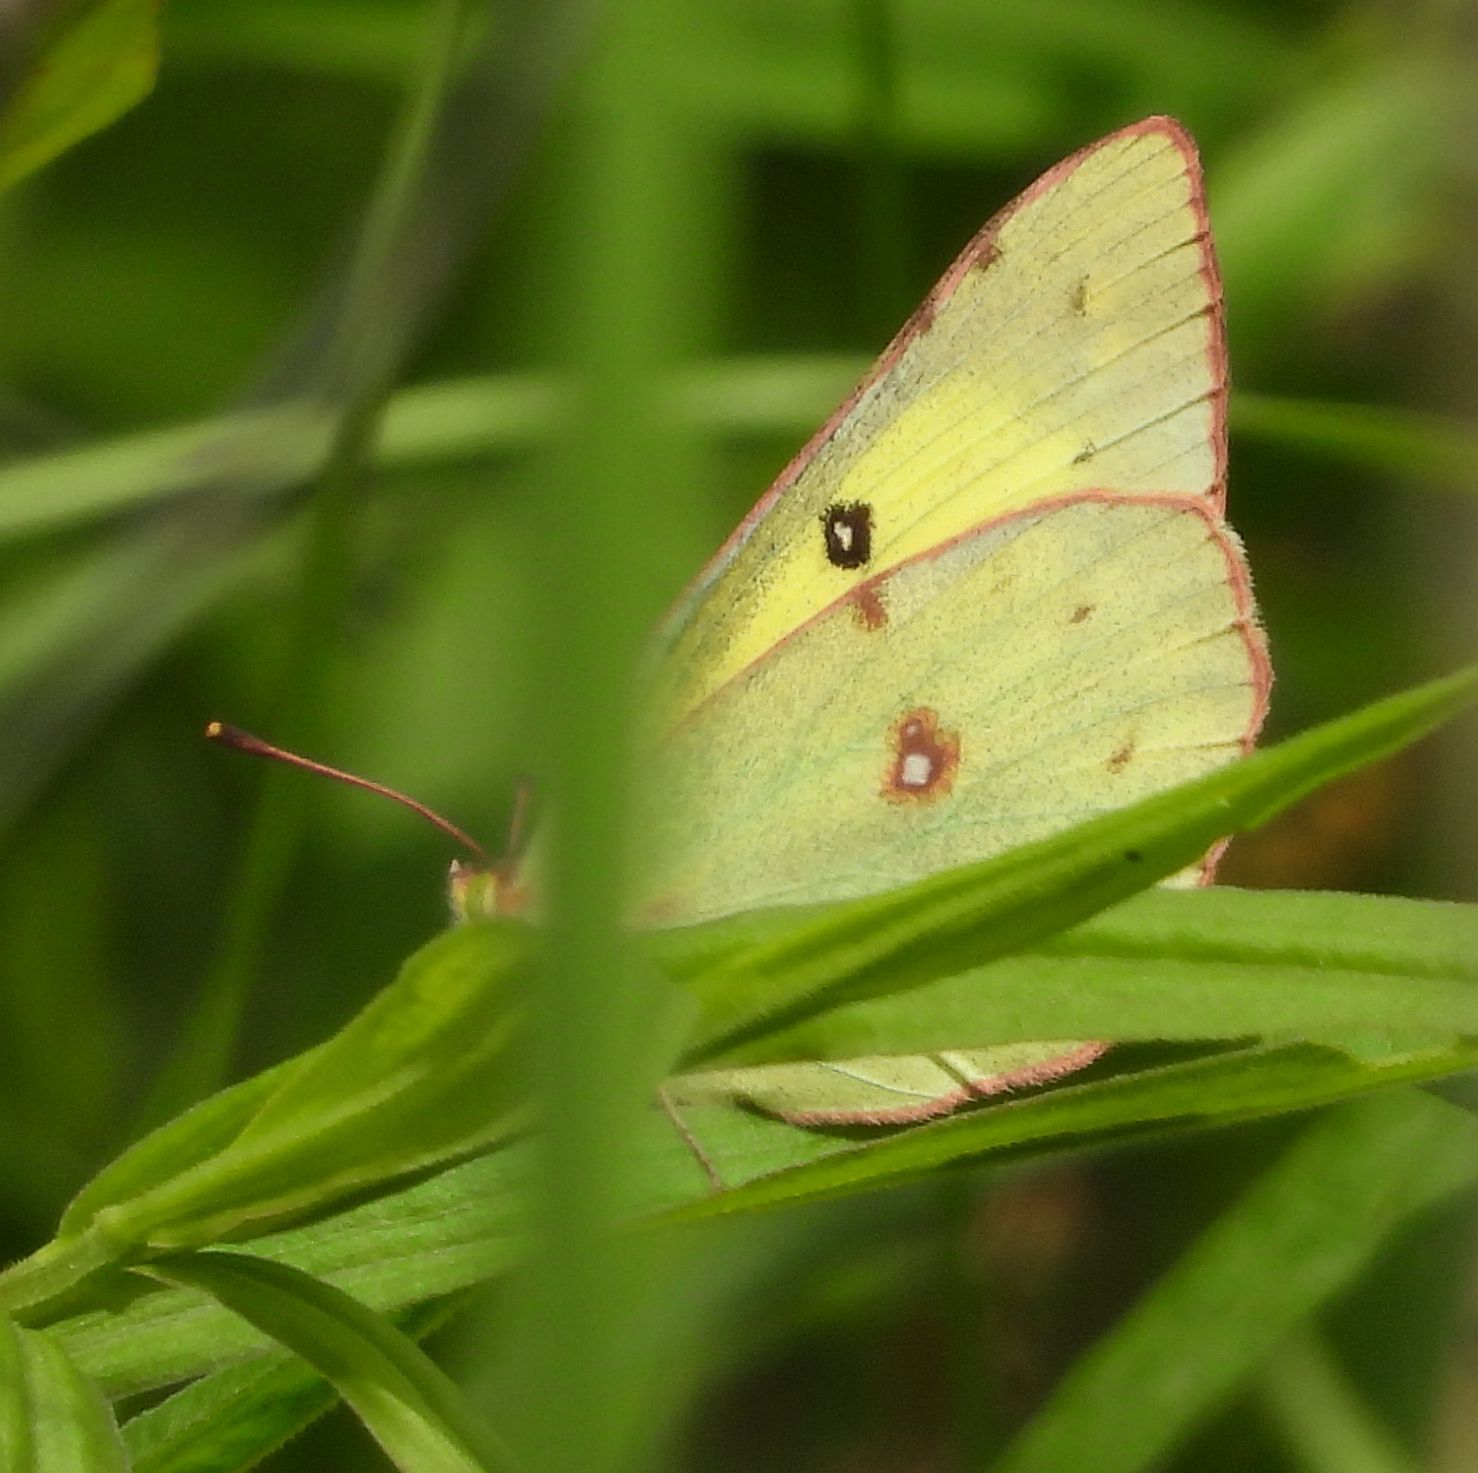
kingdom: Animalia
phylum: Arthropoda
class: Insecta
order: Lepidoptera
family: Pieridae
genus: Colias
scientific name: Colias philodice
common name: Clouded sulphur
